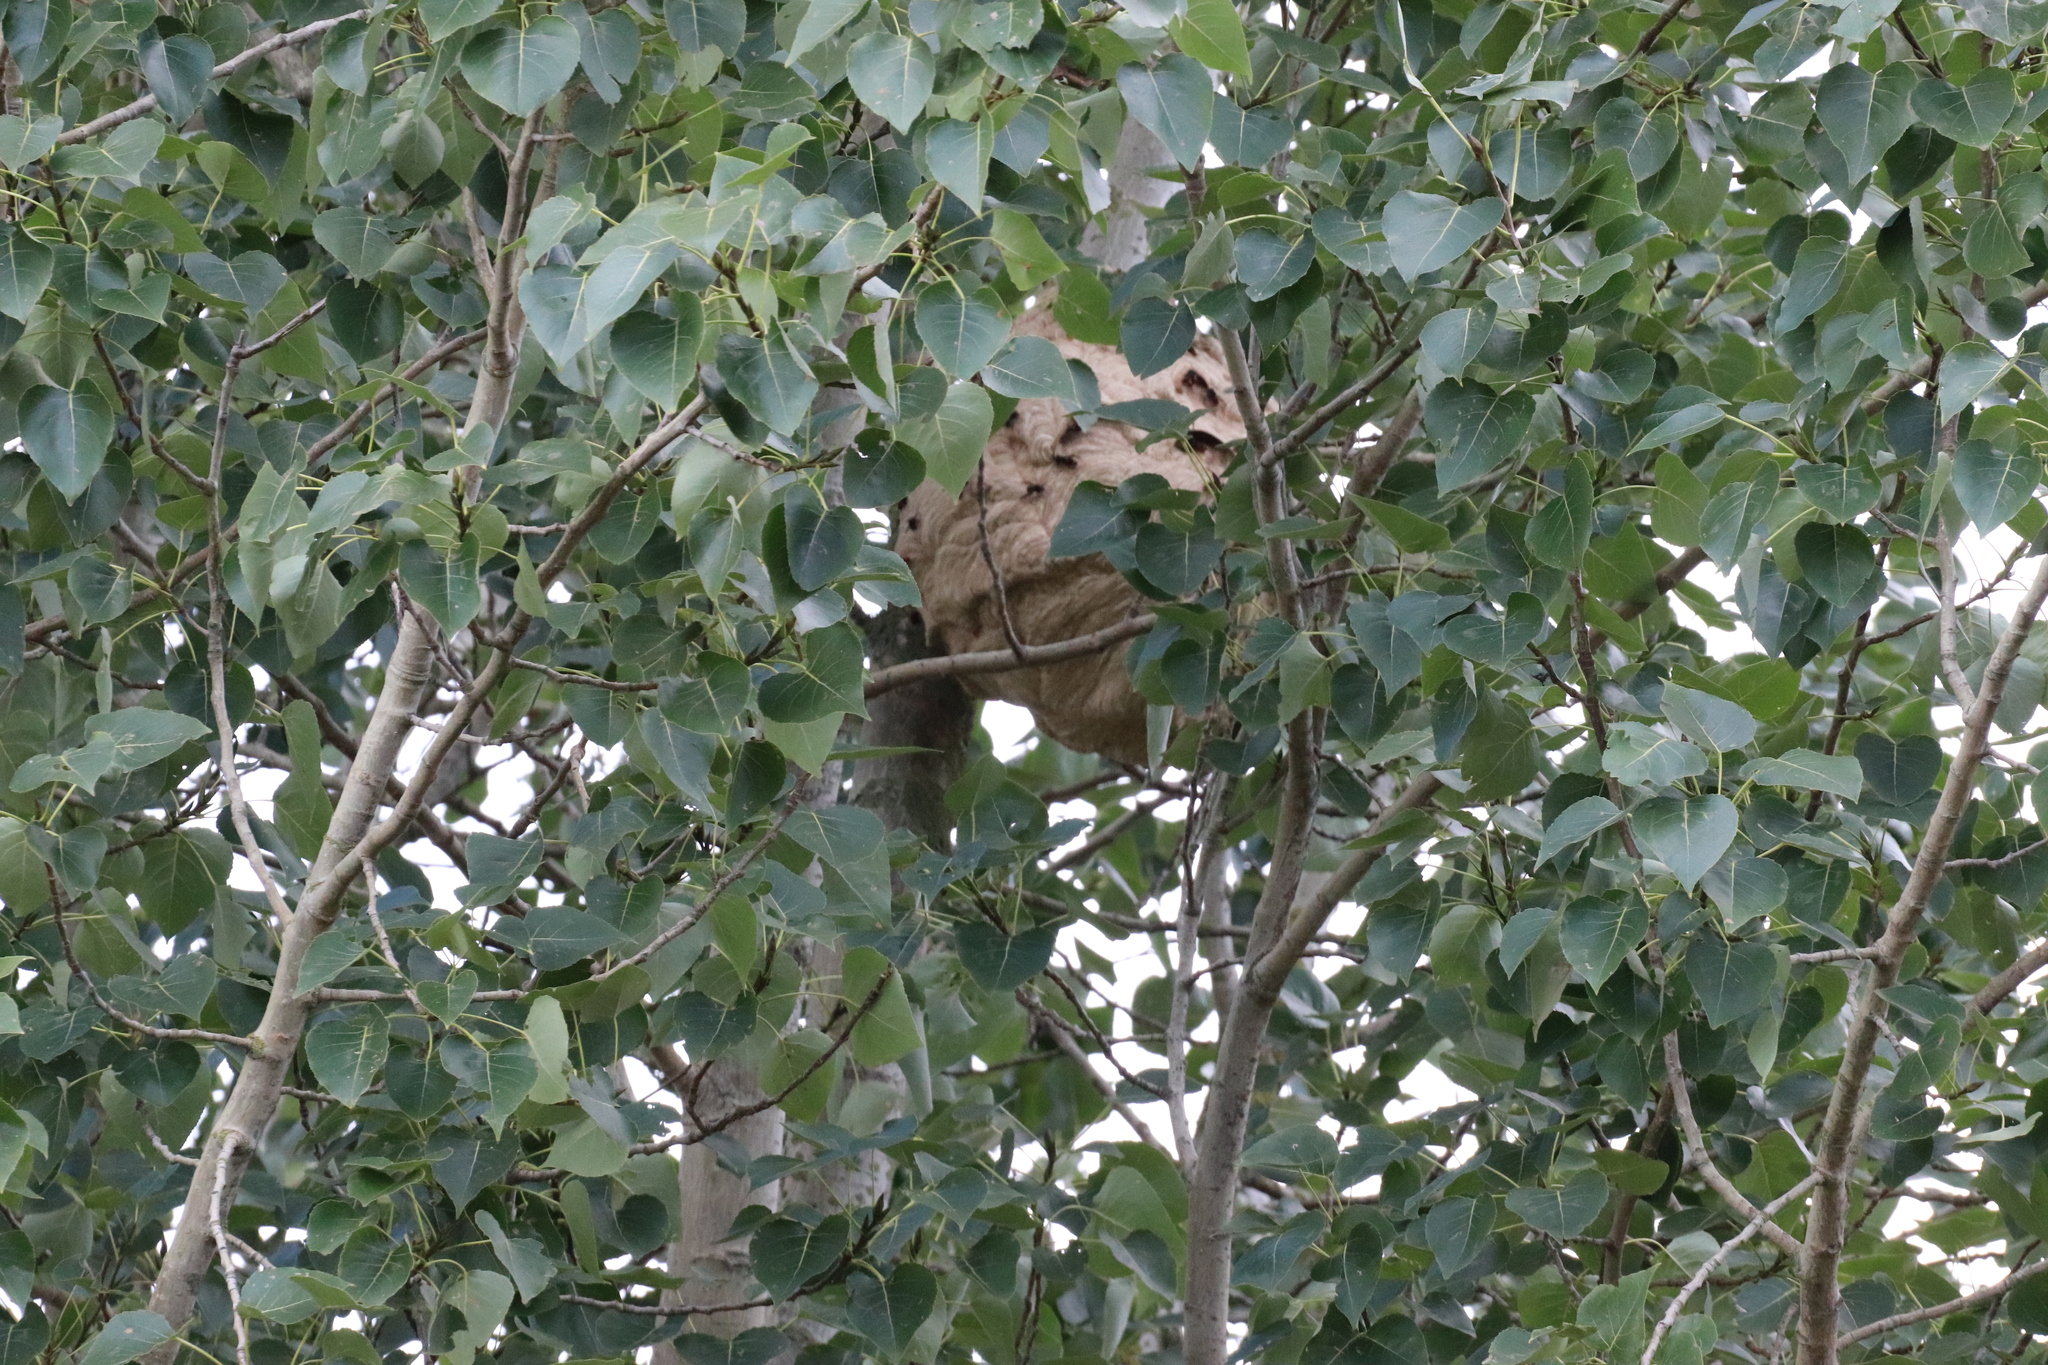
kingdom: Animalia
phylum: Arthropoda
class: Insecta
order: Hymenoptera
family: Vespidae
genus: Vespa
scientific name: Vespa velutina
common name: Asian hornet
